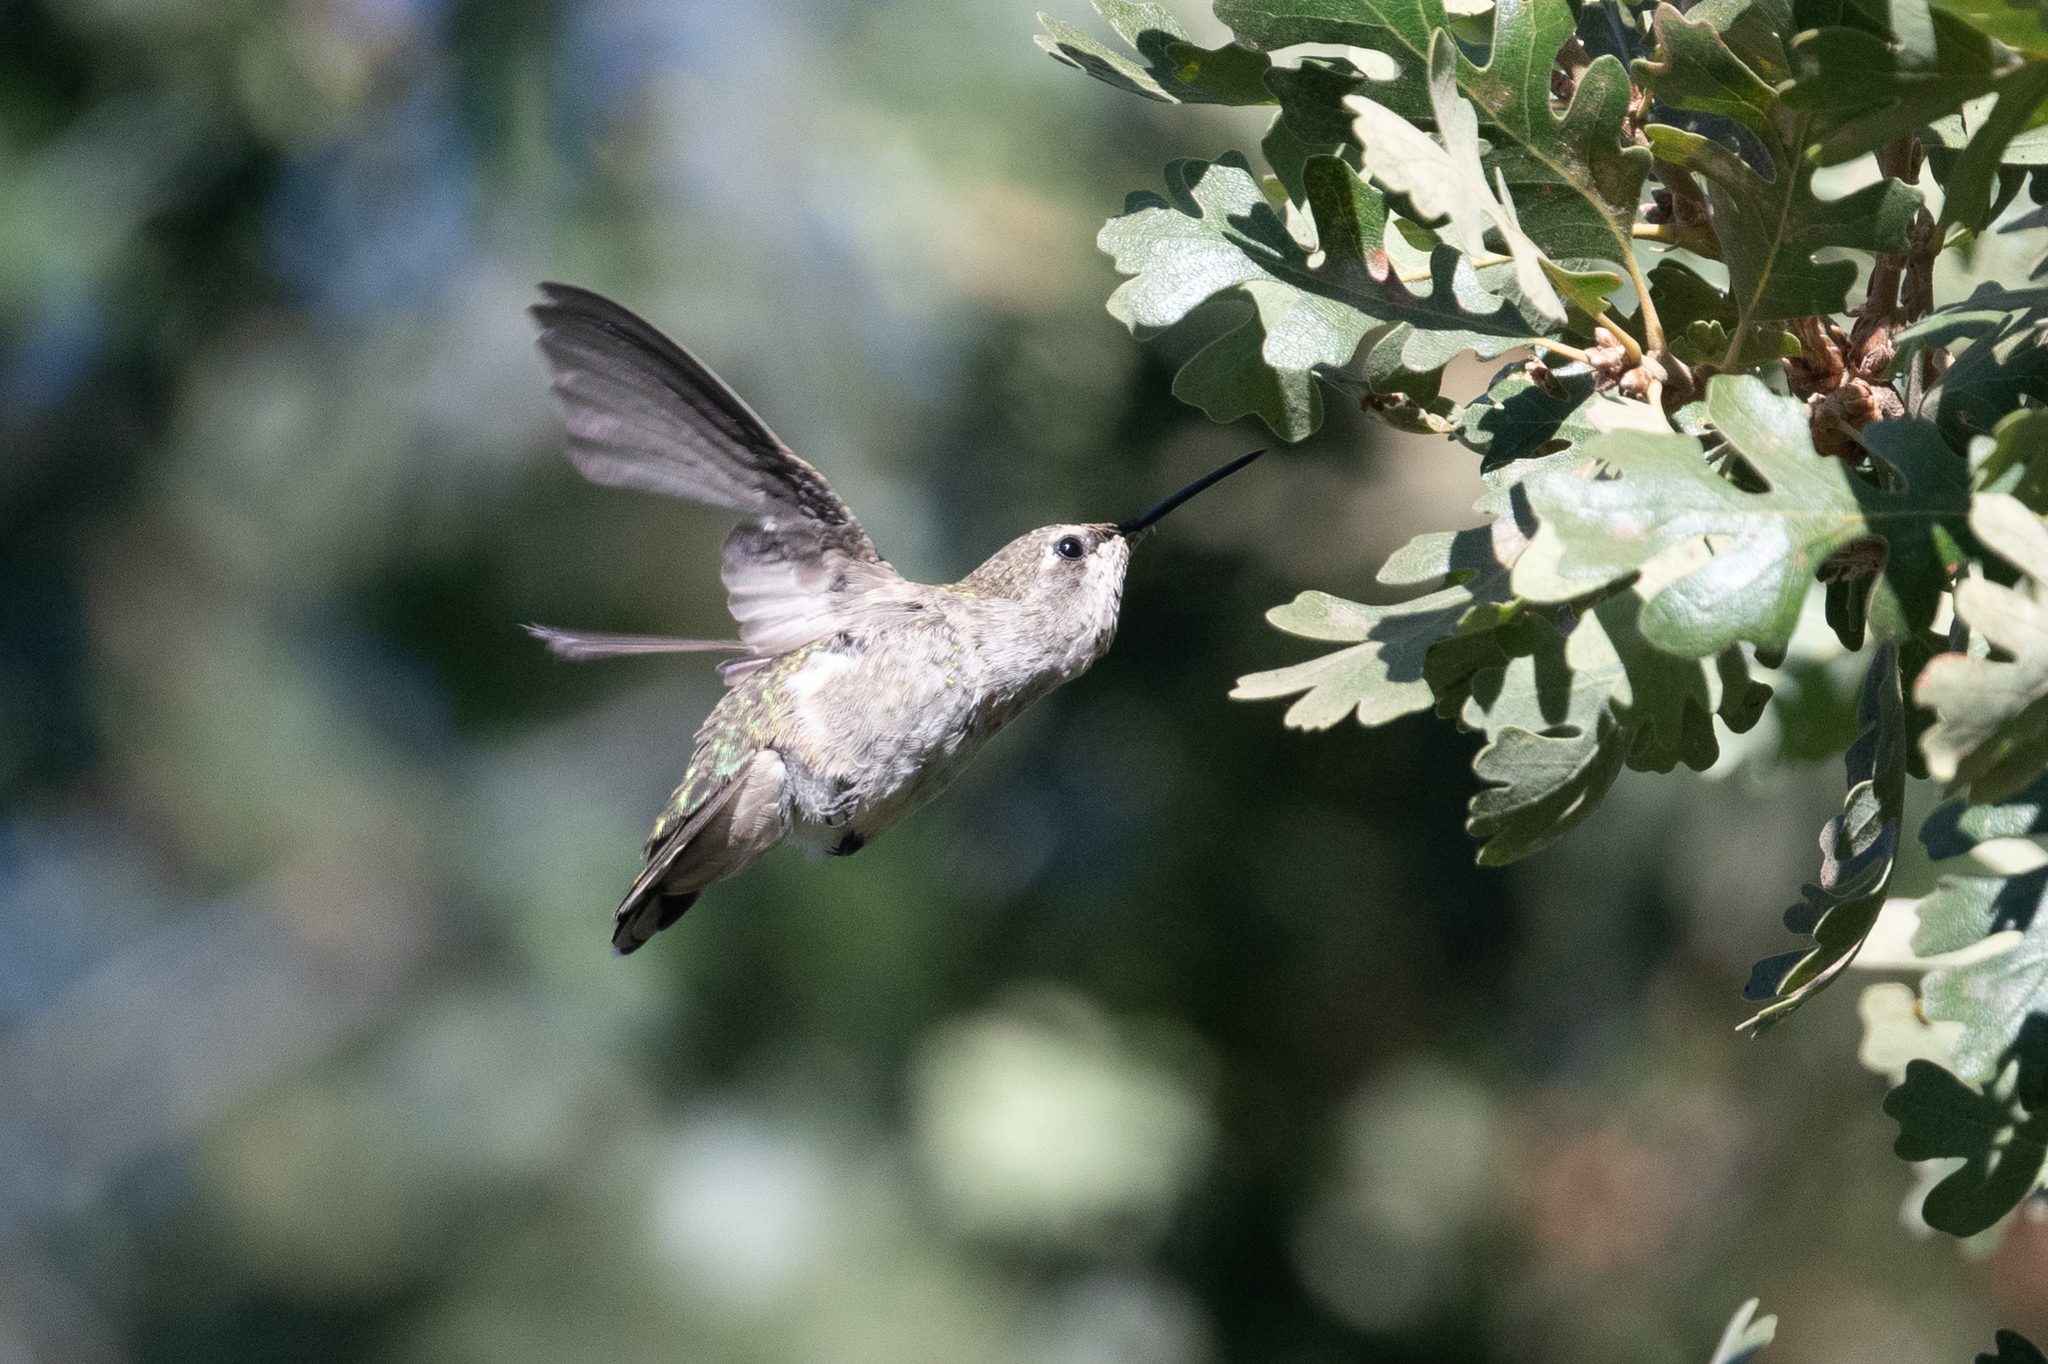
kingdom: Animalia
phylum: Chordata
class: Aves
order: Apodiformes
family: Trochilidae
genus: Calypte
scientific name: Calypte anna
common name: Anna's hummingbird
